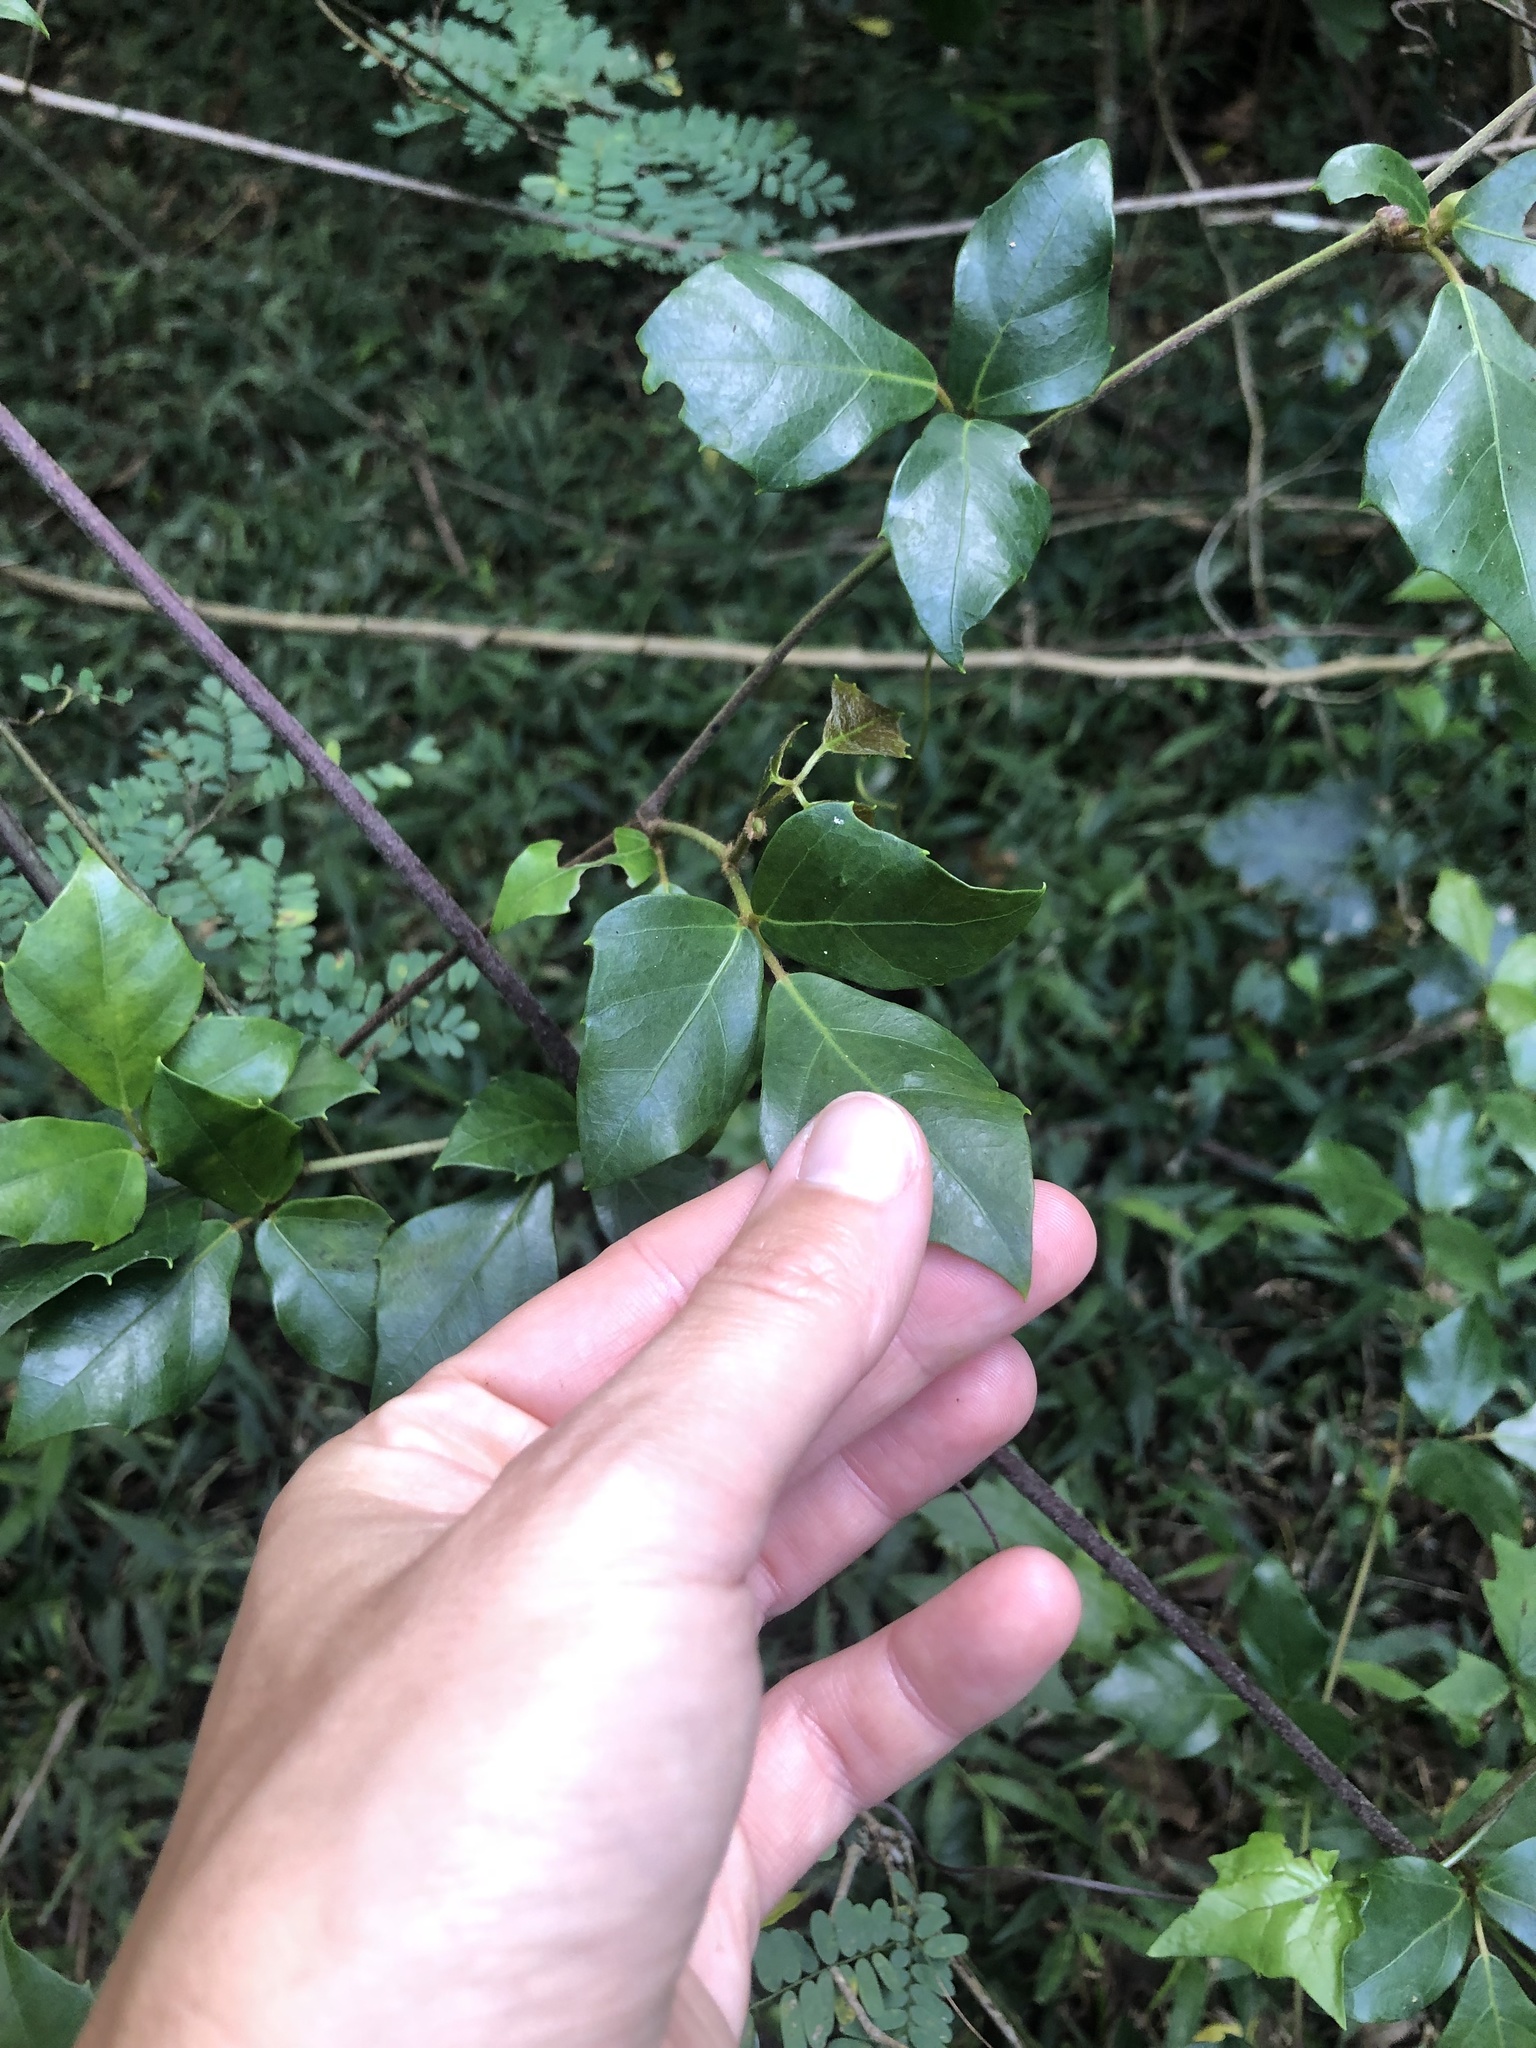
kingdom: Plantae
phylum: Tracheophyta
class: Magnoliopsida
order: Vitales
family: Vitaceae
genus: Rhoicissus
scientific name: Rhoicissus rhomboidea
